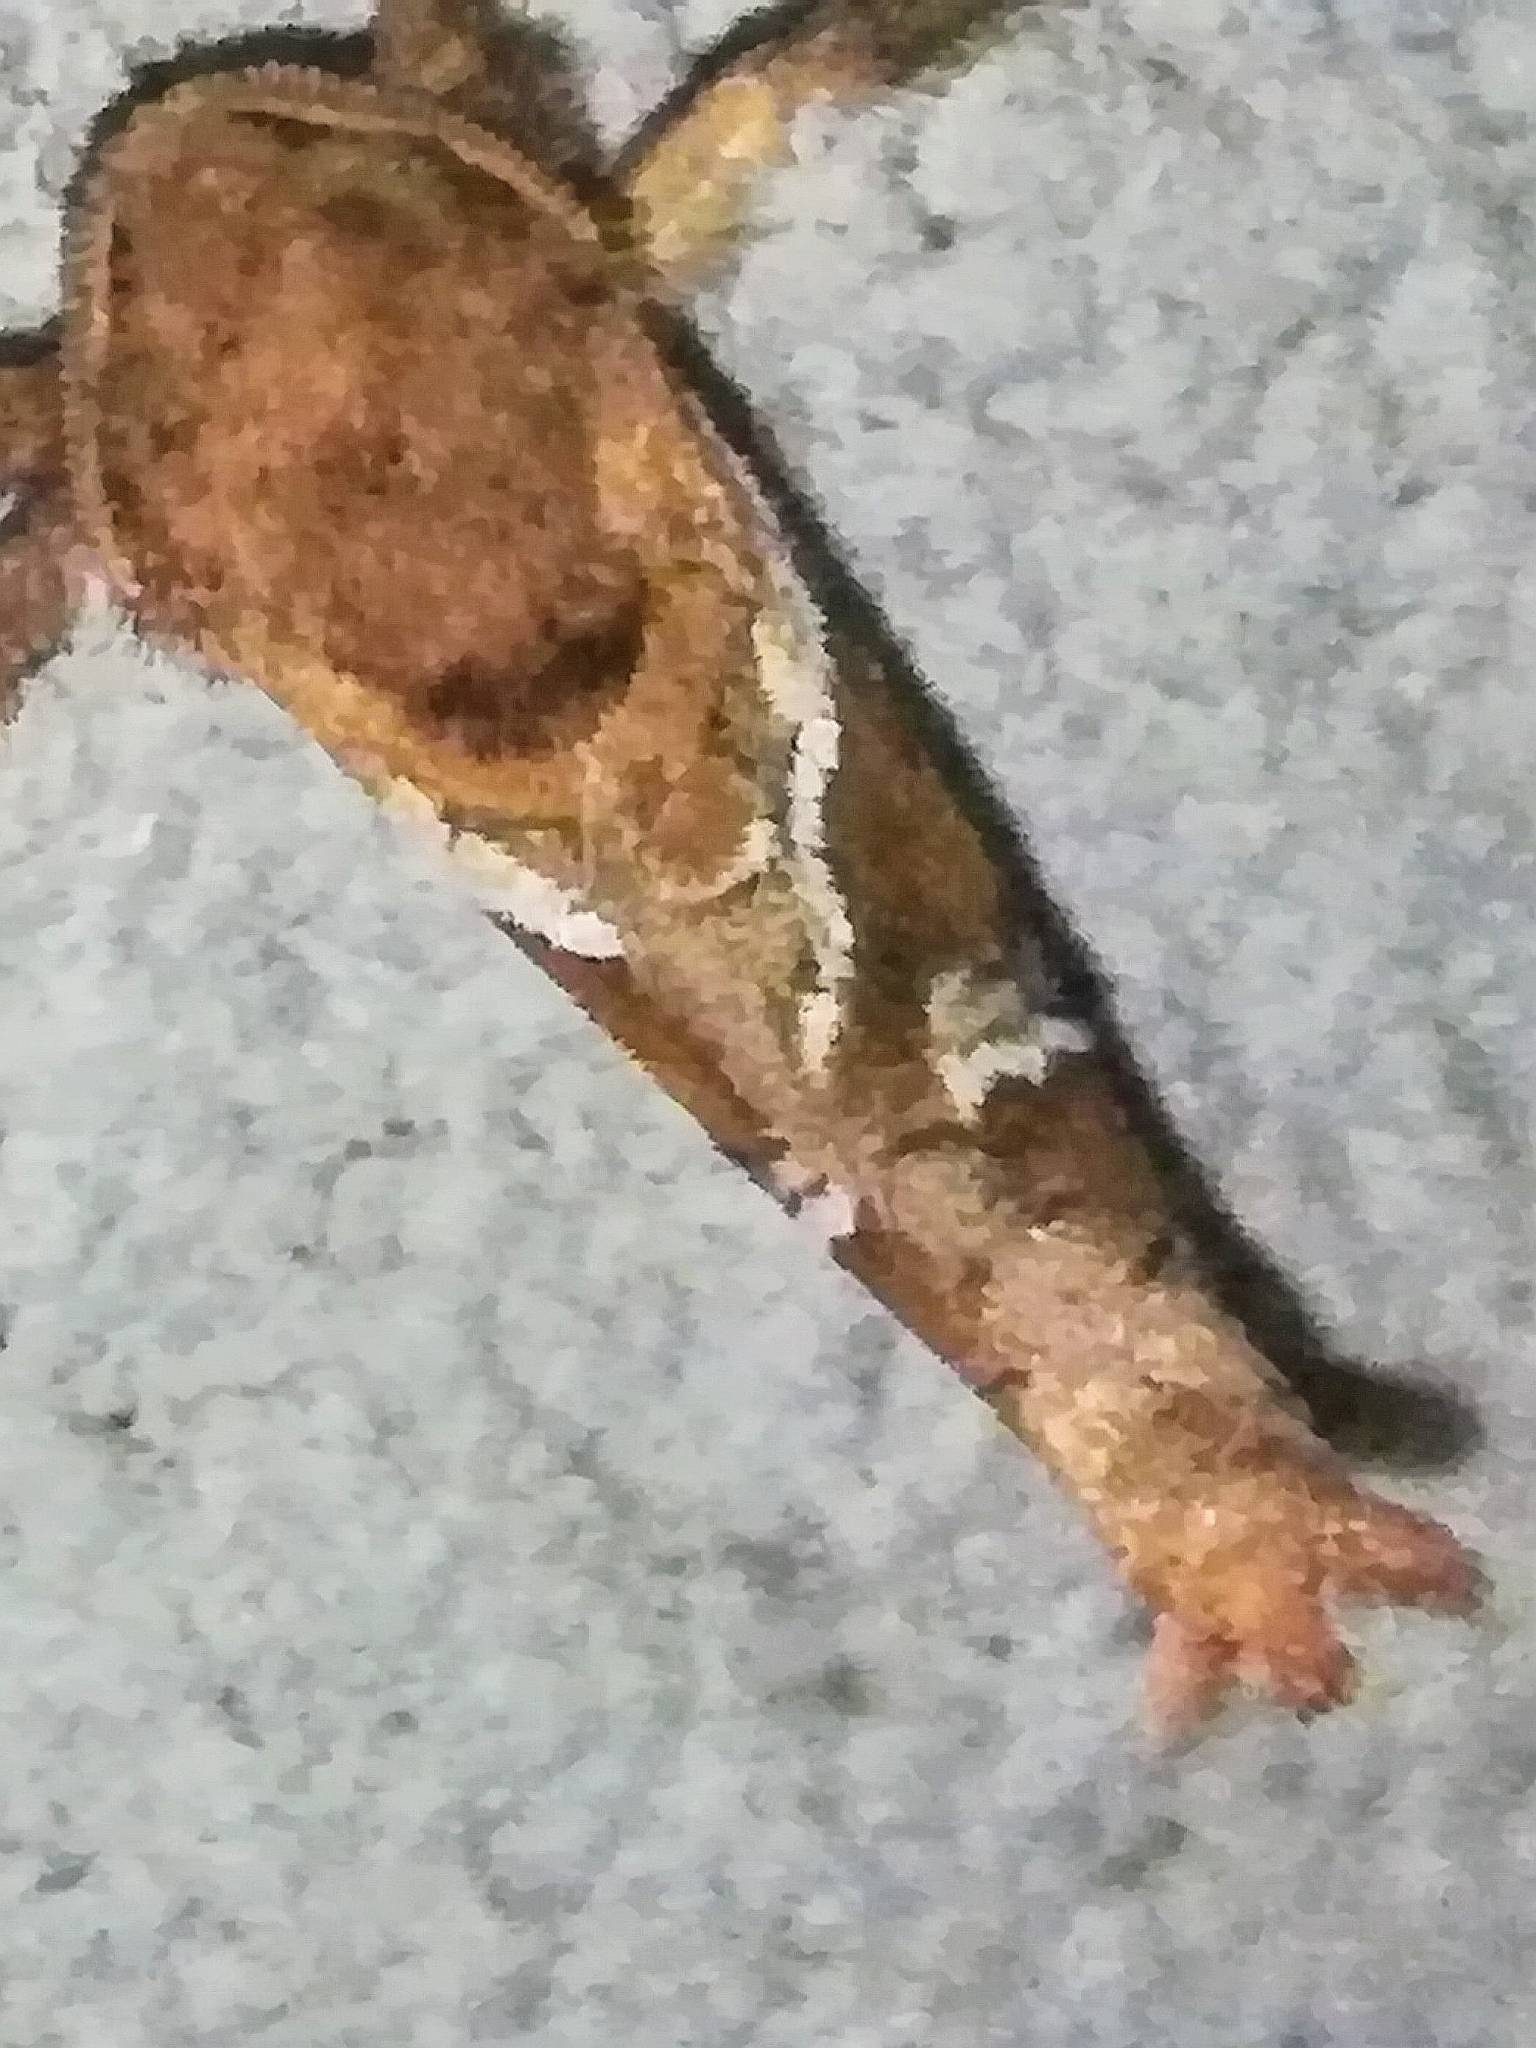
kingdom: Animalia
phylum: Arthropoda
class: Insecta
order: Lepidoptera
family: Hepialidae
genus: Triodia
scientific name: Triodia sylvina
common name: Orange swift
